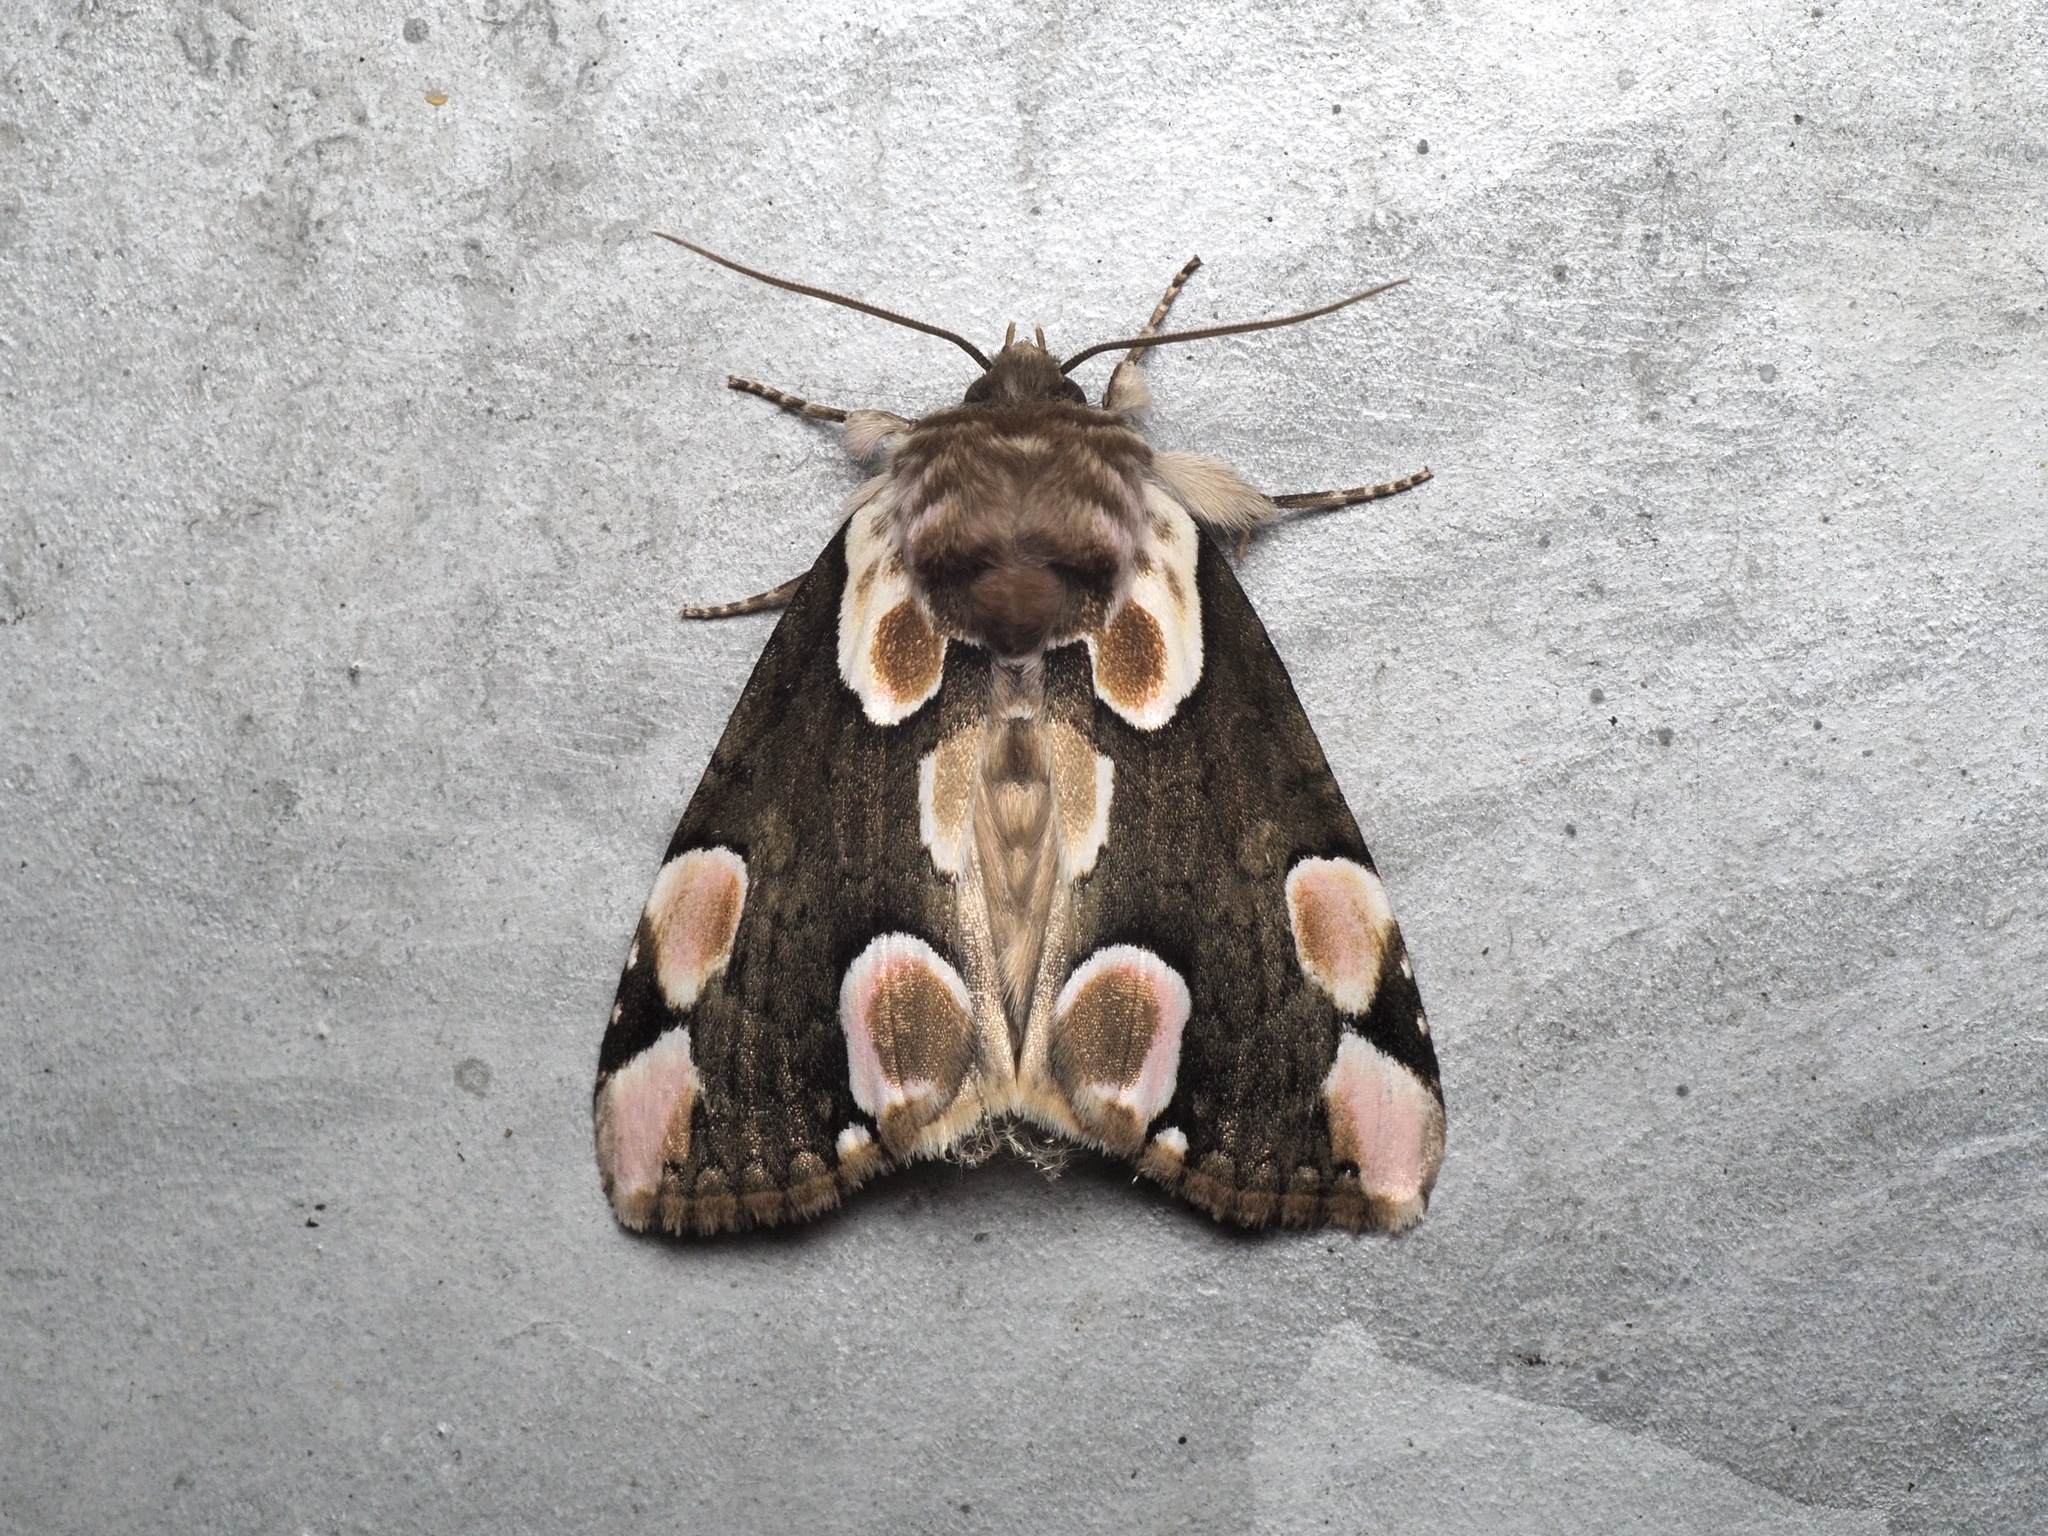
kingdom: Animalia
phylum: Arthropoda
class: Insecta
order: Lepidoptera
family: Drepanidae
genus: Thyatira
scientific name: Thyatira batis
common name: Peach blossom
